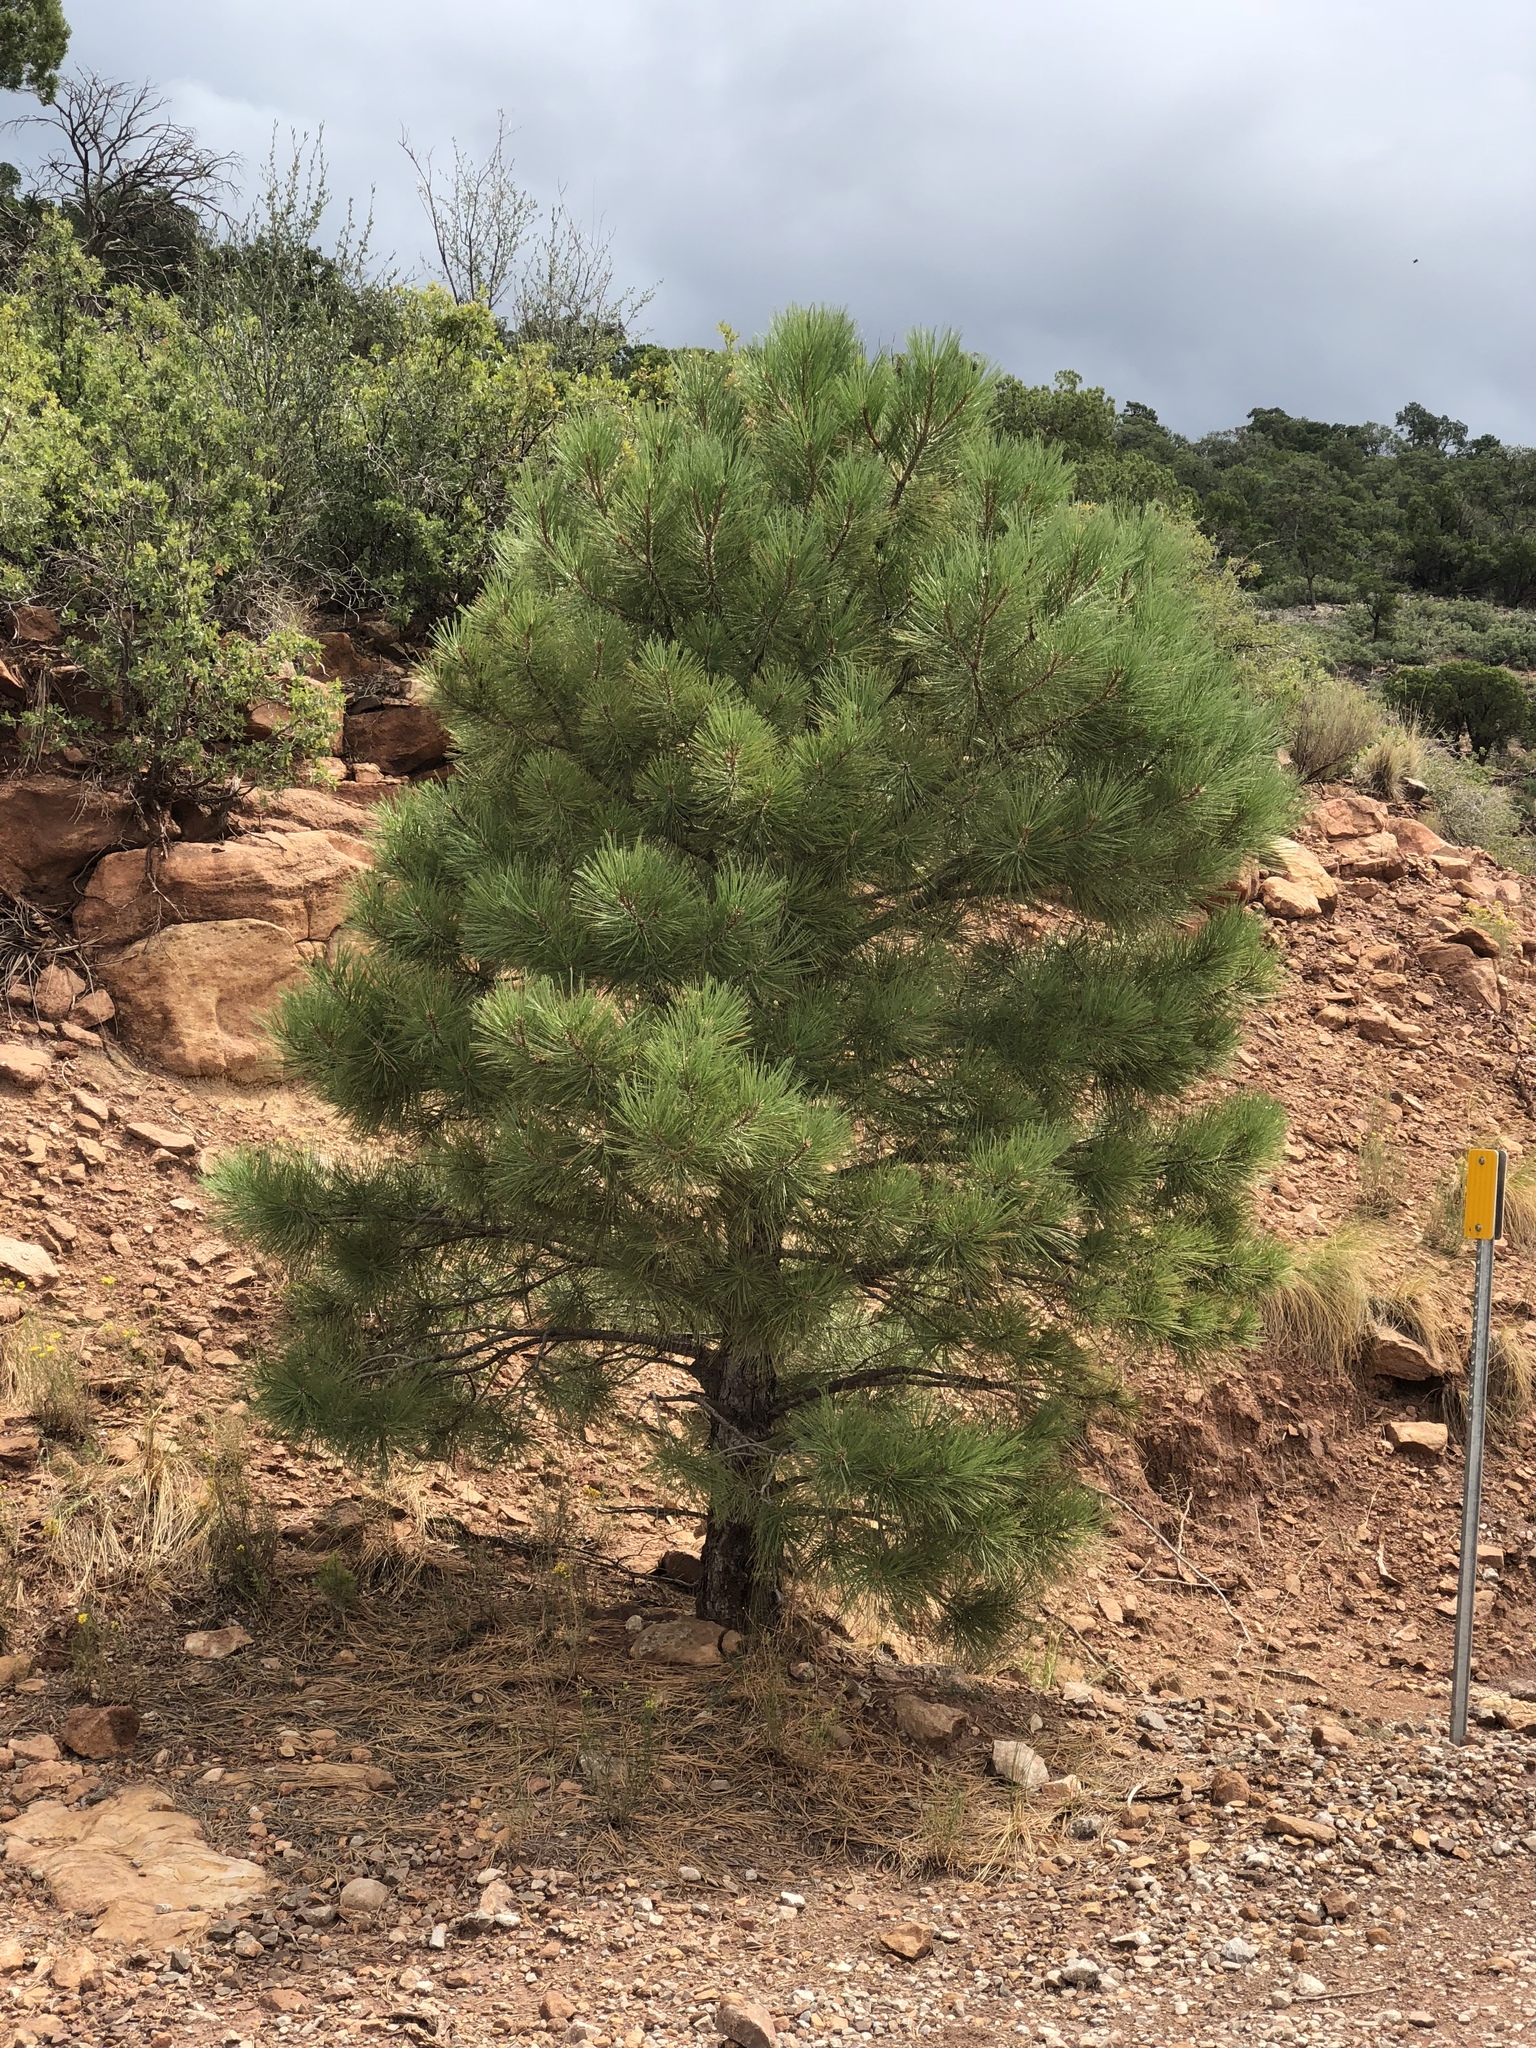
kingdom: Plantae
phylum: Tracheophyta
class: Pinopsida
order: Pinales
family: Pinaceae
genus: Pinus
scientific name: Pinus ponderosa
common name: Western yellow-pine
